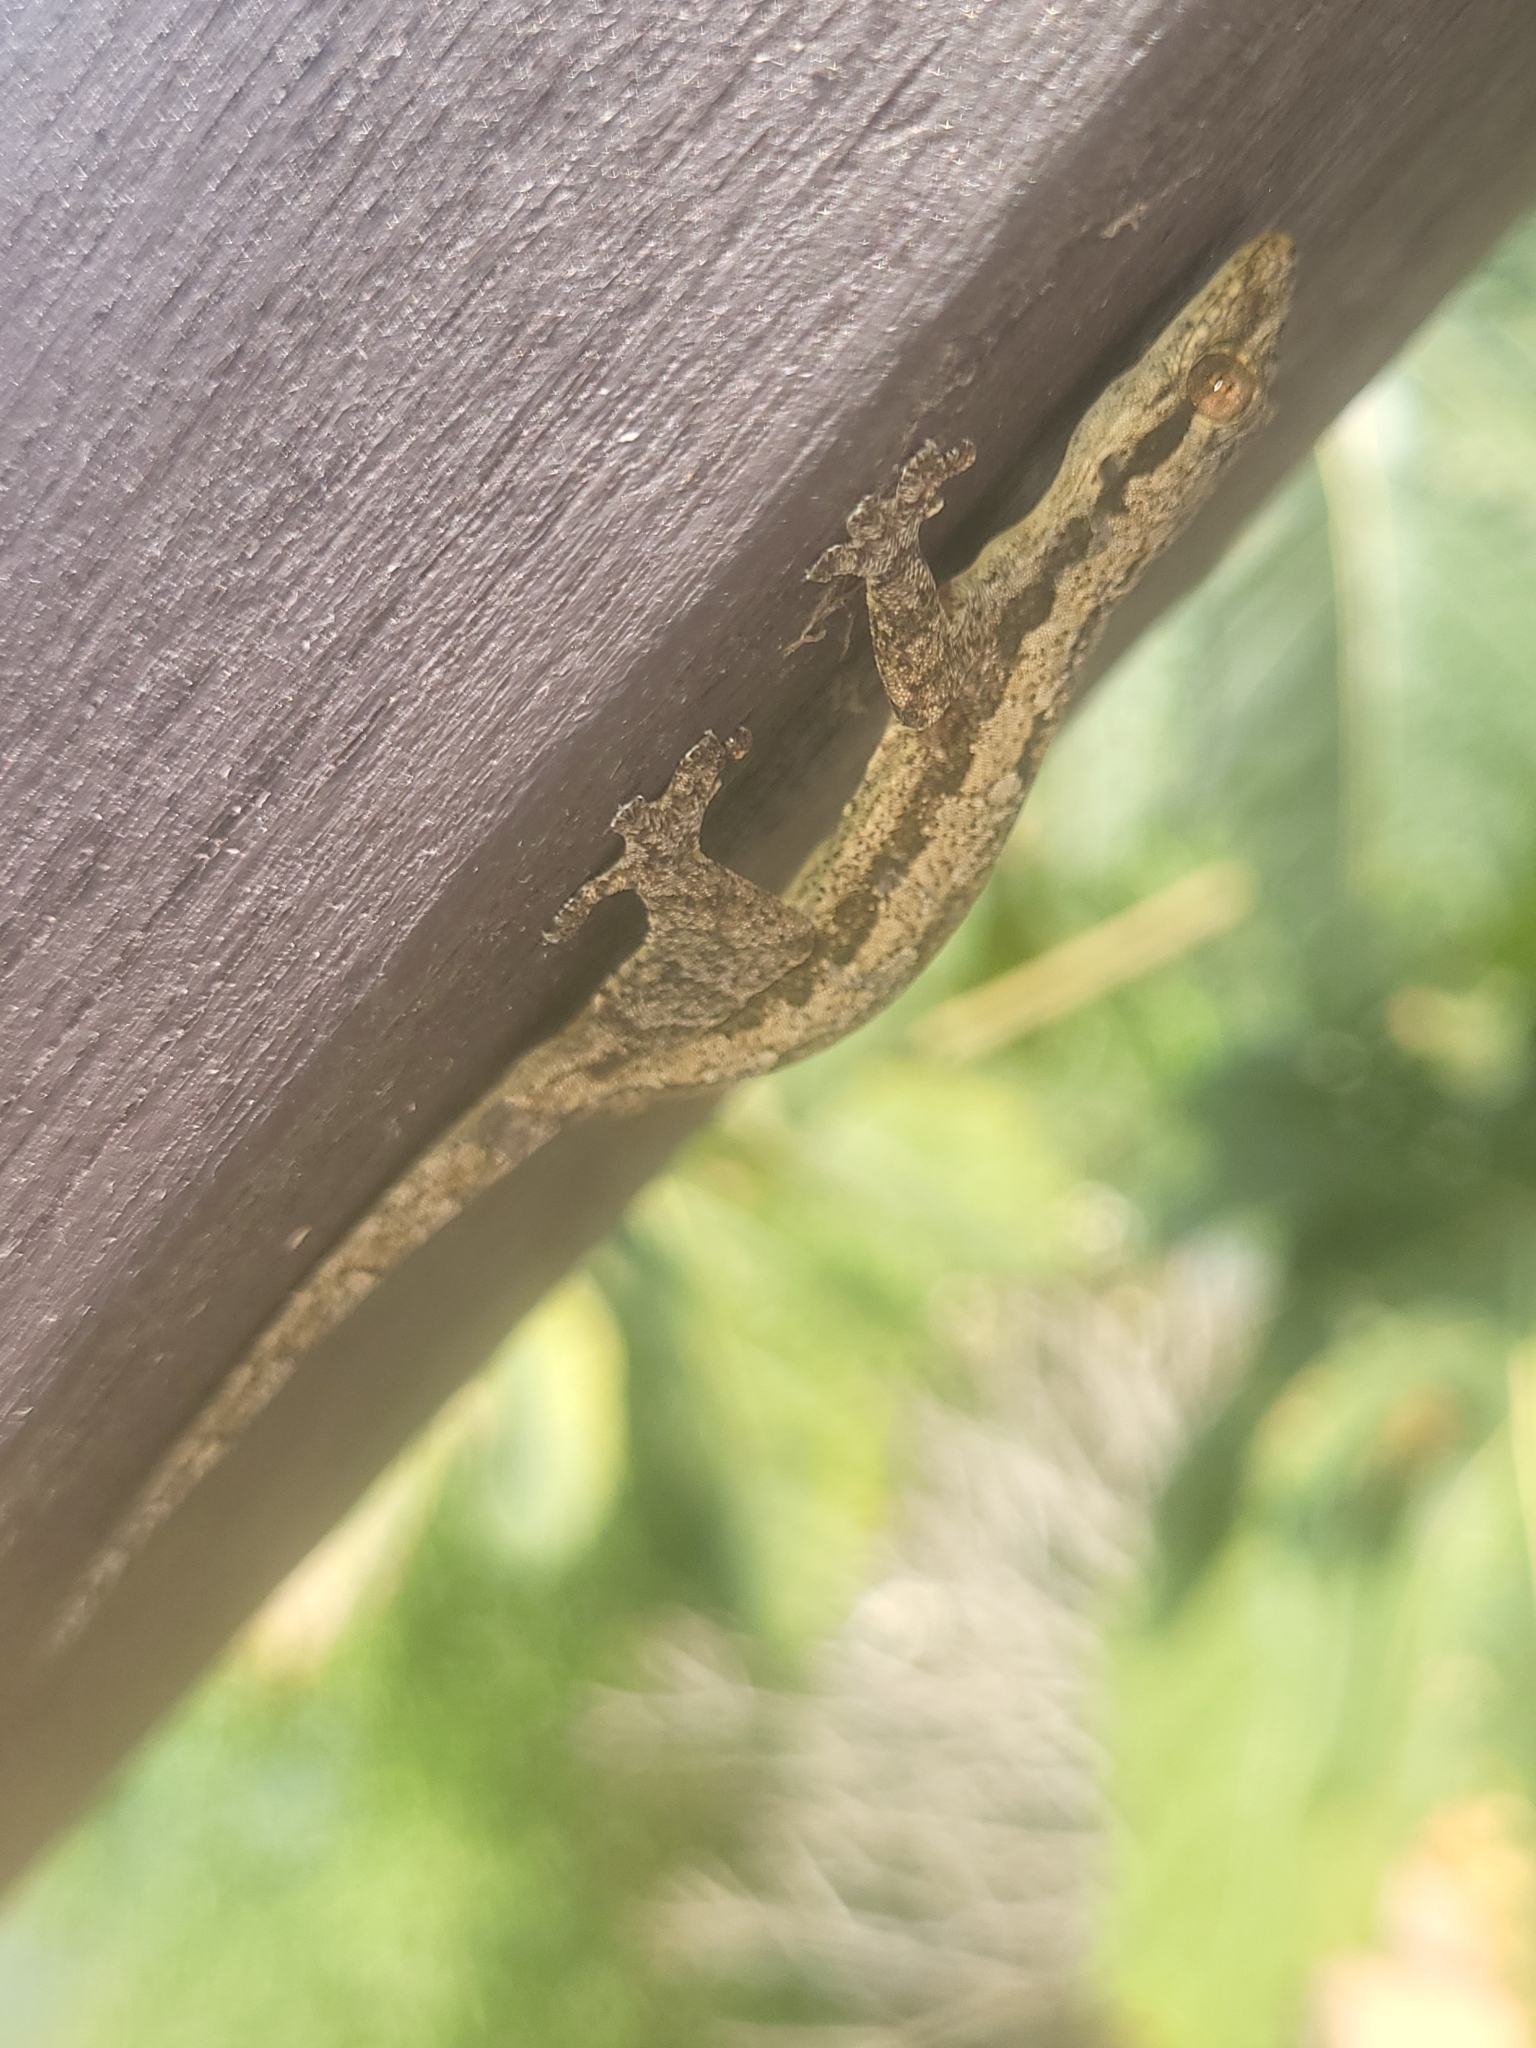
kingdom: Animalia
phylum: Chordata
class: Squamata
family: Gekkonidae
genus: Hemidactylus
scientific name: Hemidactylus platyurus
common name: Flat-tailed house gecko
